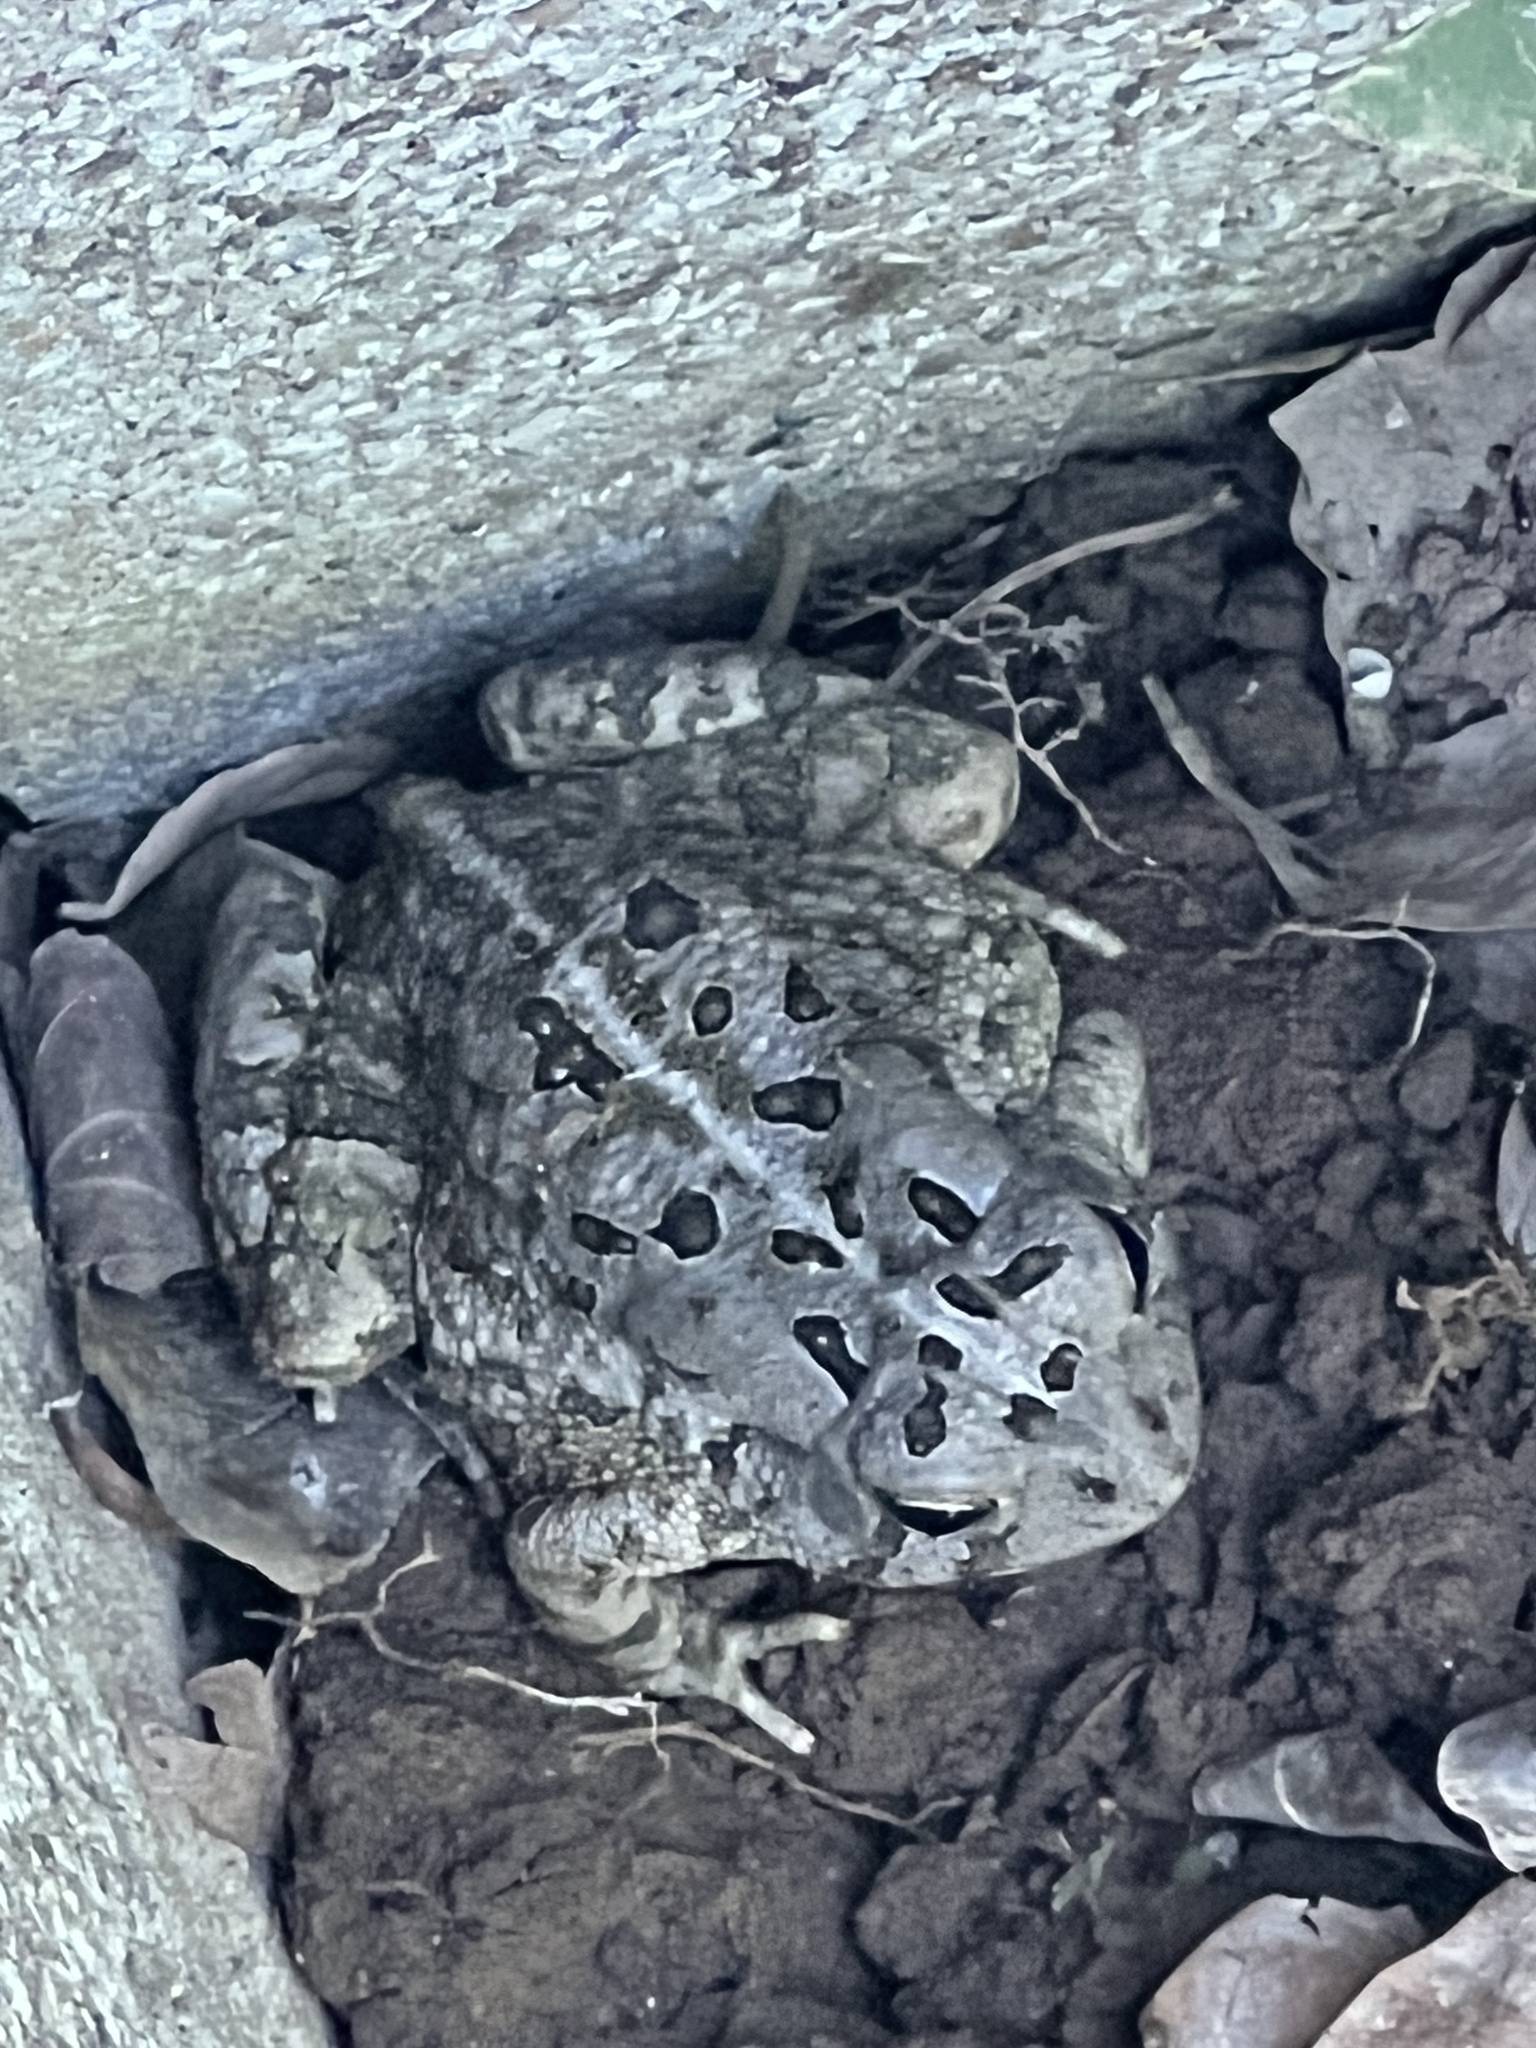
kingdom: Animalia
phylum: Chordata
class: Amphibia
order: Anura
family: Bufonidae
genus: Anaxyrus
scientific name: Anaxyrus americanus
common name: American toad
